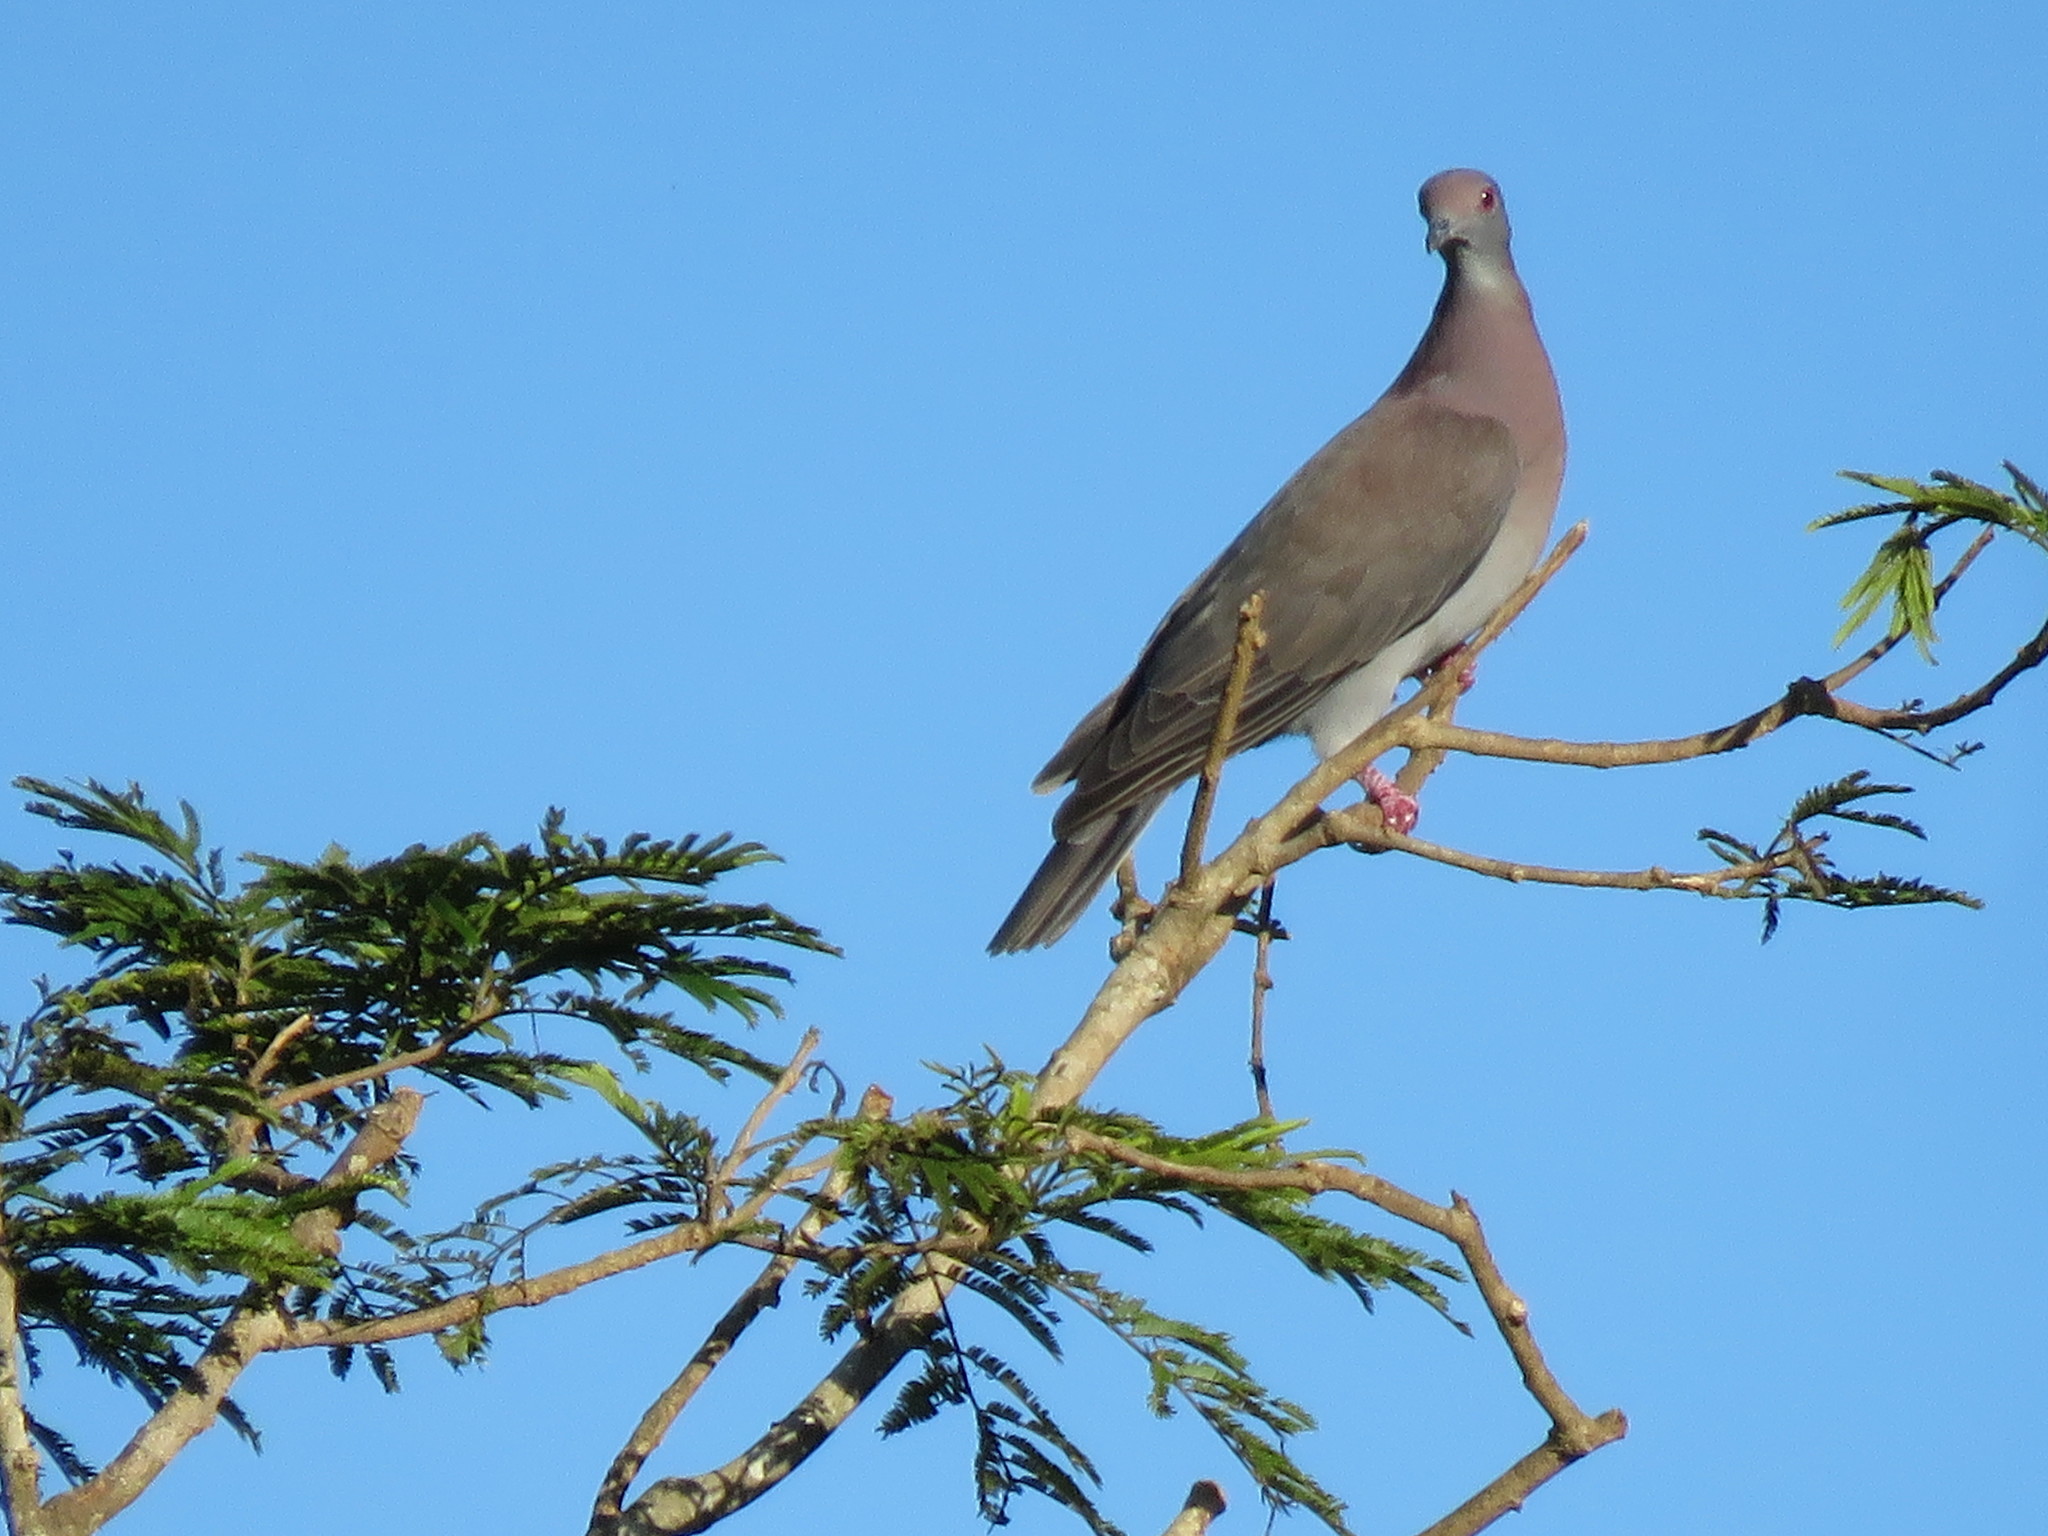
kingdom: Animalia
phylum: Chordata
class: Aves
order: Columbiformes
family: Columbidae
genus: Patagioenas
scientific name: Patagioenas cayennensis
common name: Pale-vented pigeon
